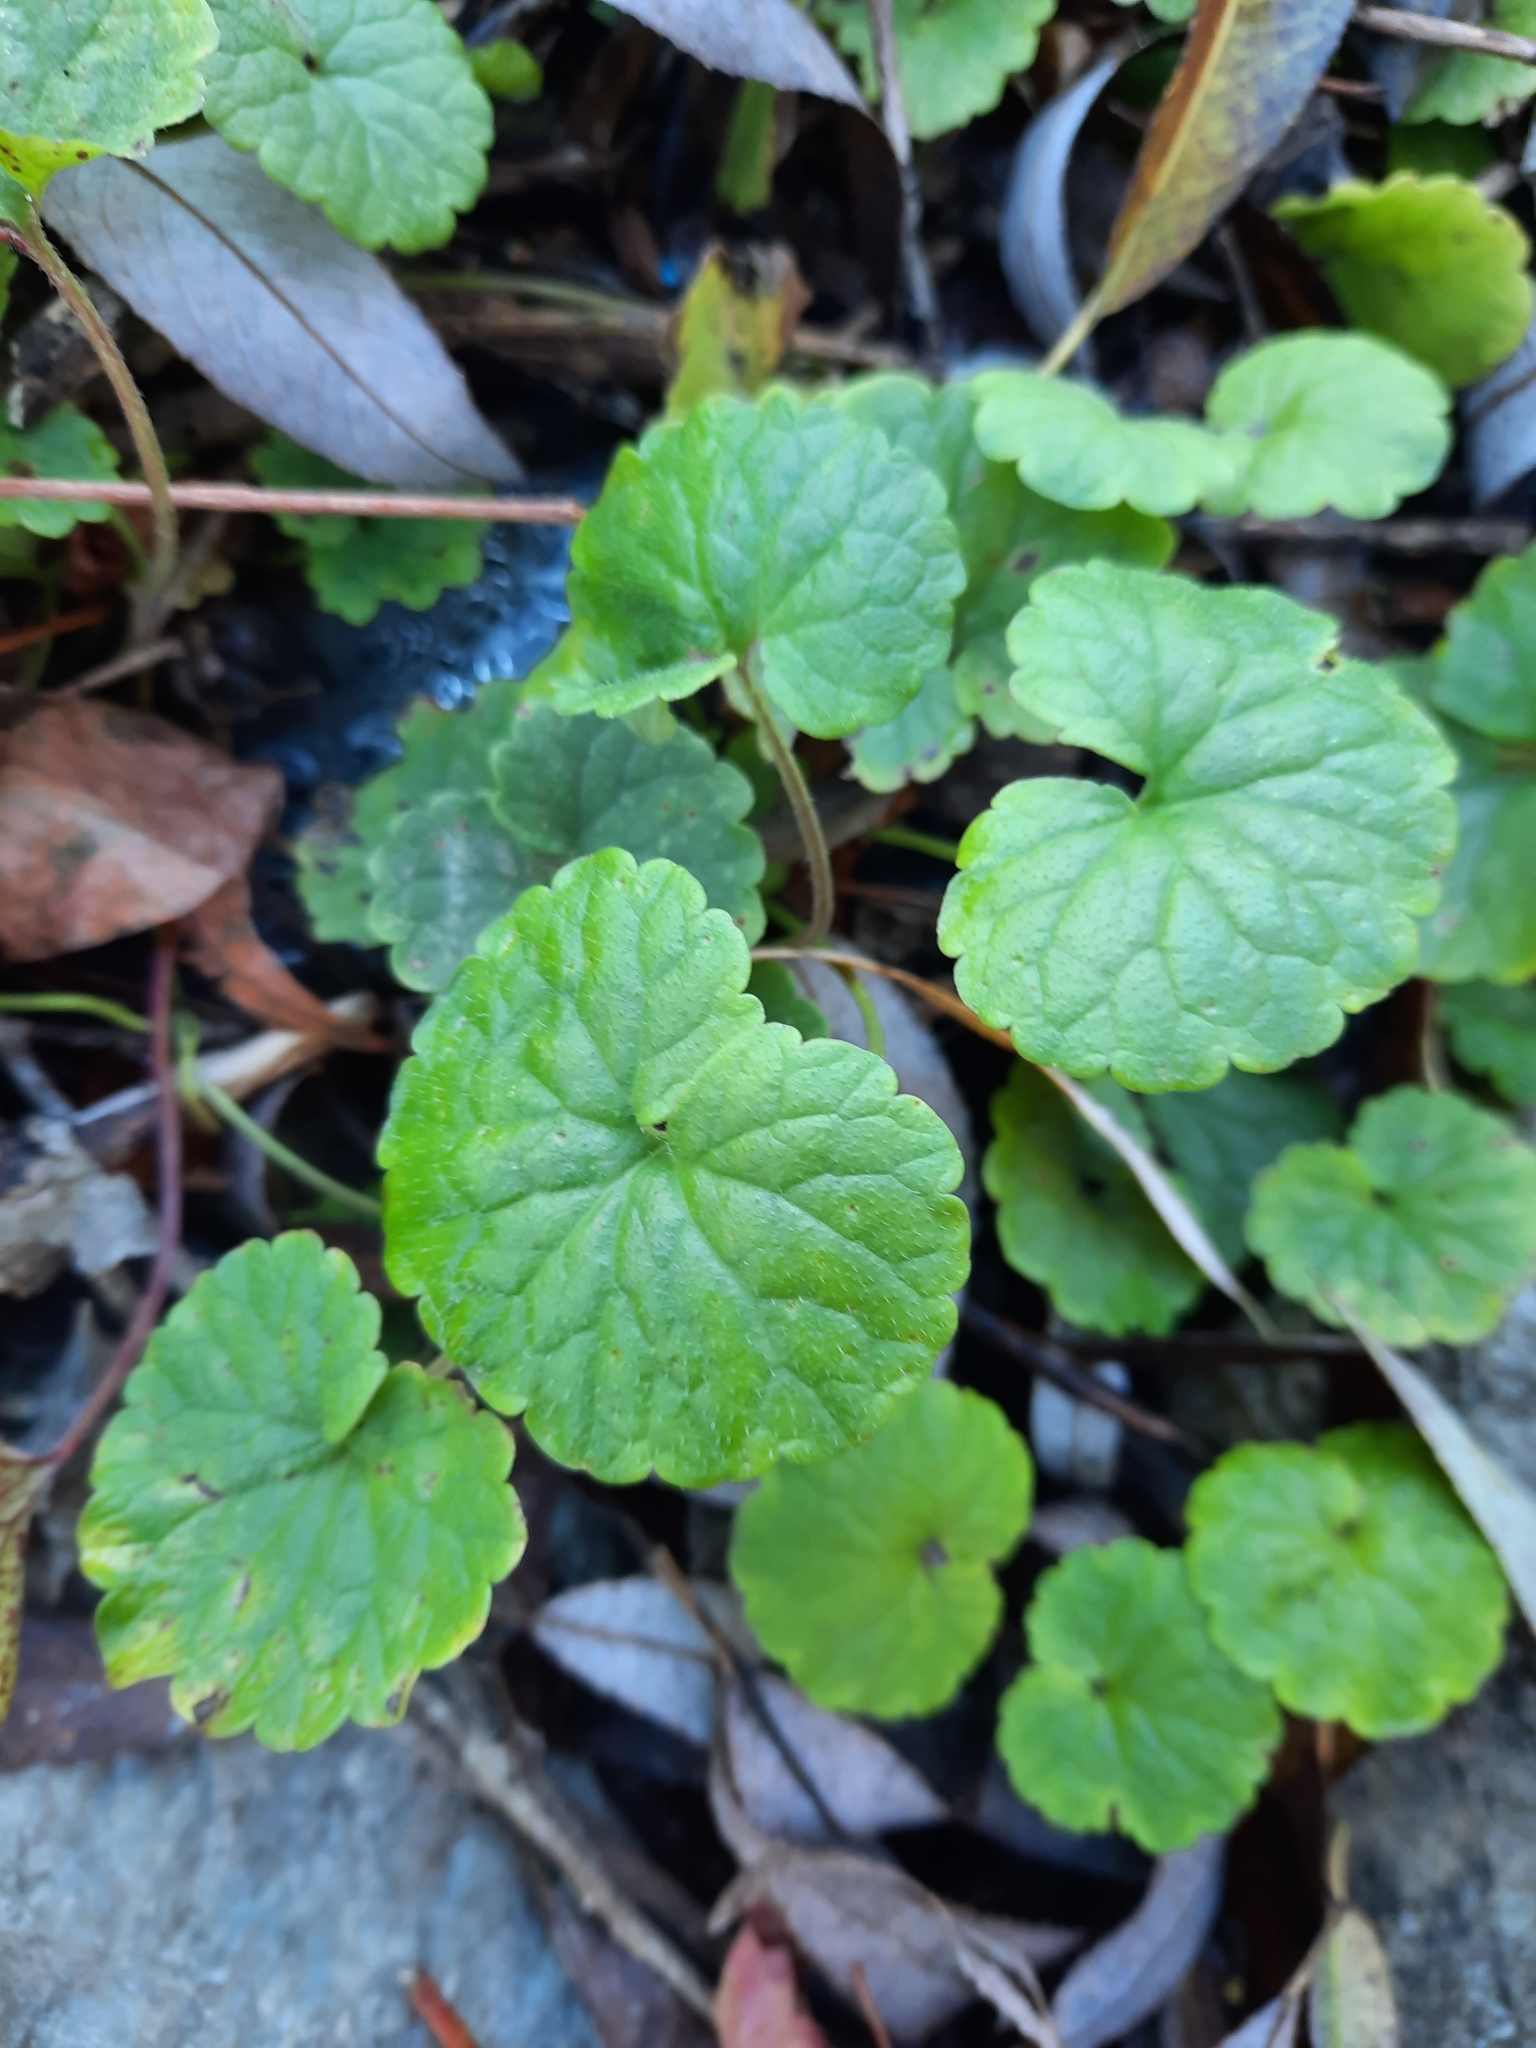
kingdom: Plantae
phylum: Tracheophyta
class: Magnoliopsida
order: Lamiales
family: Lamiaceae
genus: Glechoma
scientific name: Glechoma hederacea
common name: Ground ivy
